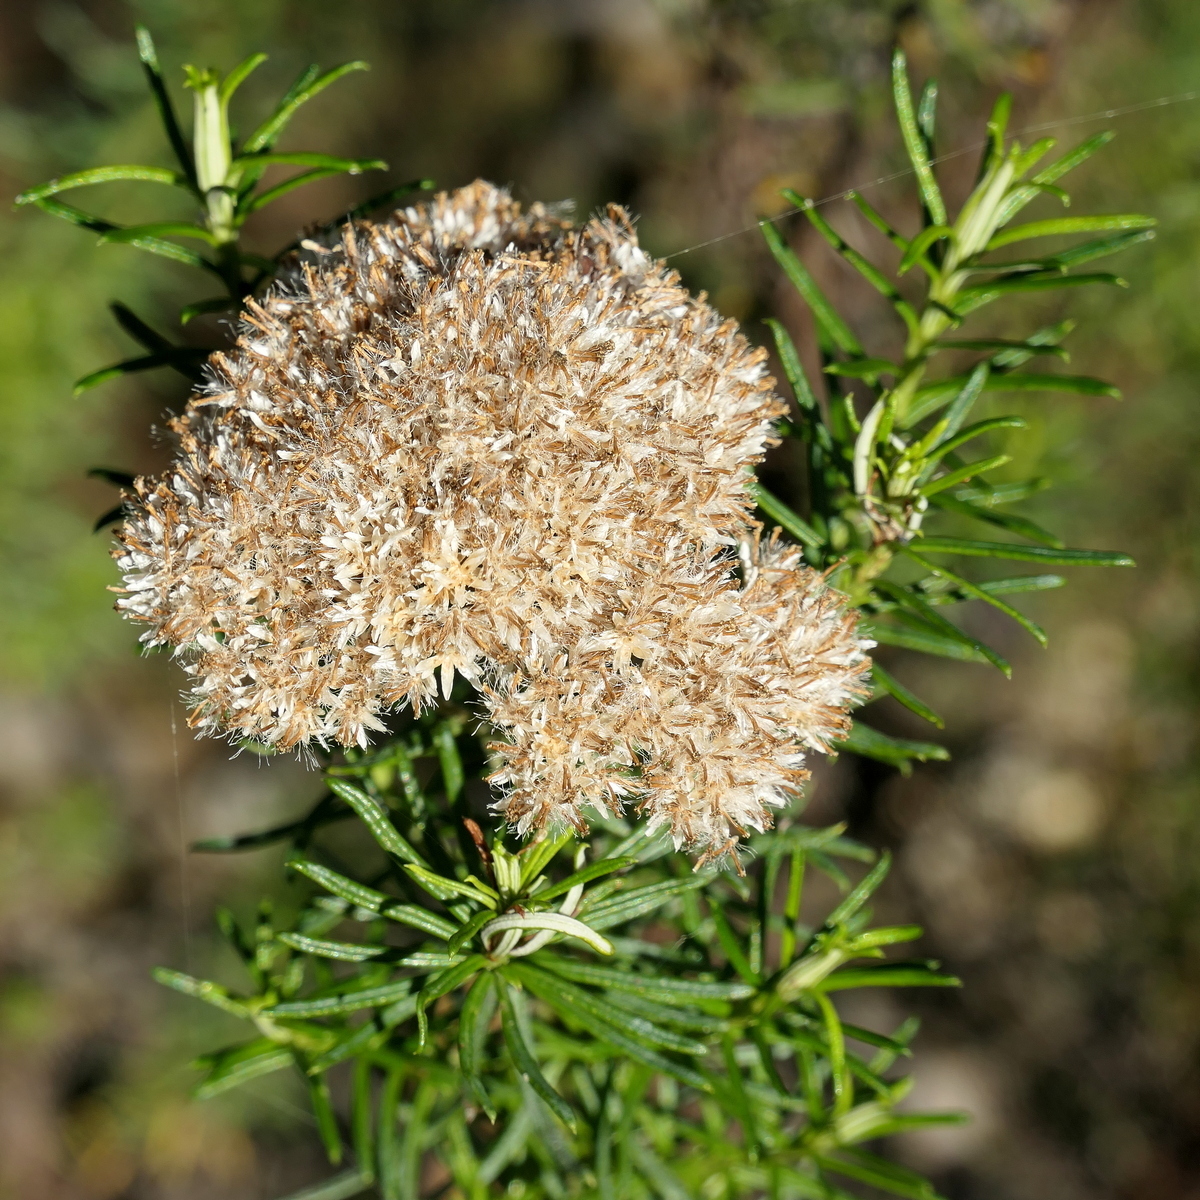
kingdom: Plantae
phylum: Tracheophyta
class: Magnoliopsida
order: Asterales
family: Asteraceae
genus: Cassinia
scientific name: Cassinia maritima
